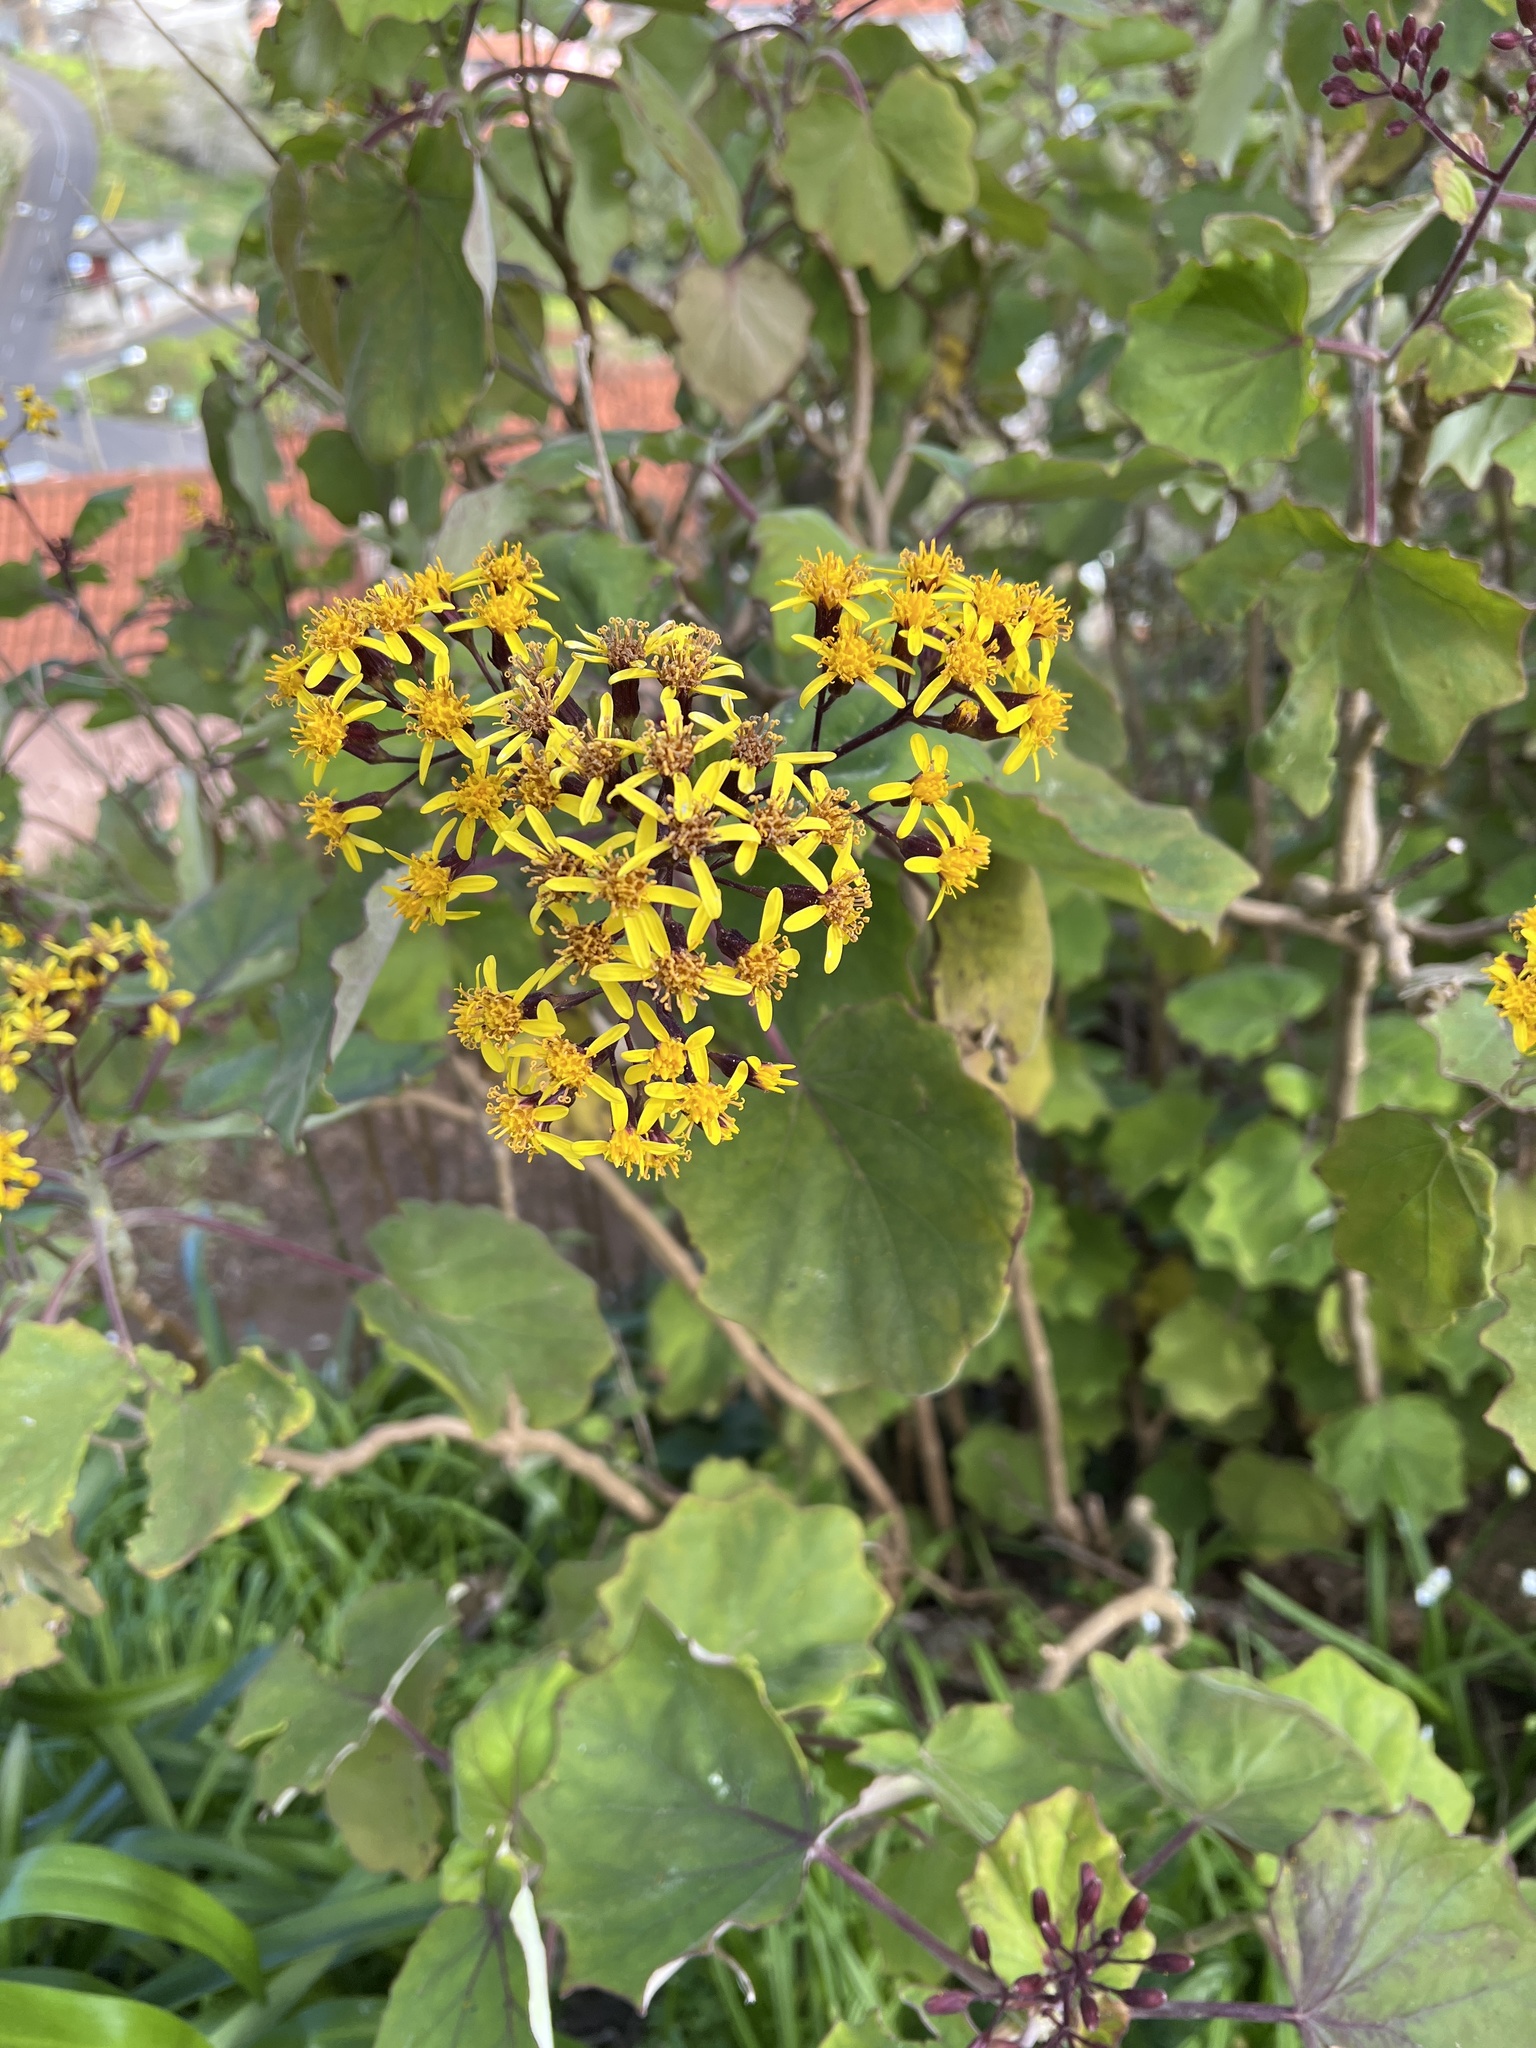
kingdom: Plantae
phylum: Tracheophyta
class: Magnoliopsida
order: Asterales
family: Asteraceae
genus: Roldana
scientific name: Roldana petasitis
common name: California-geranium
